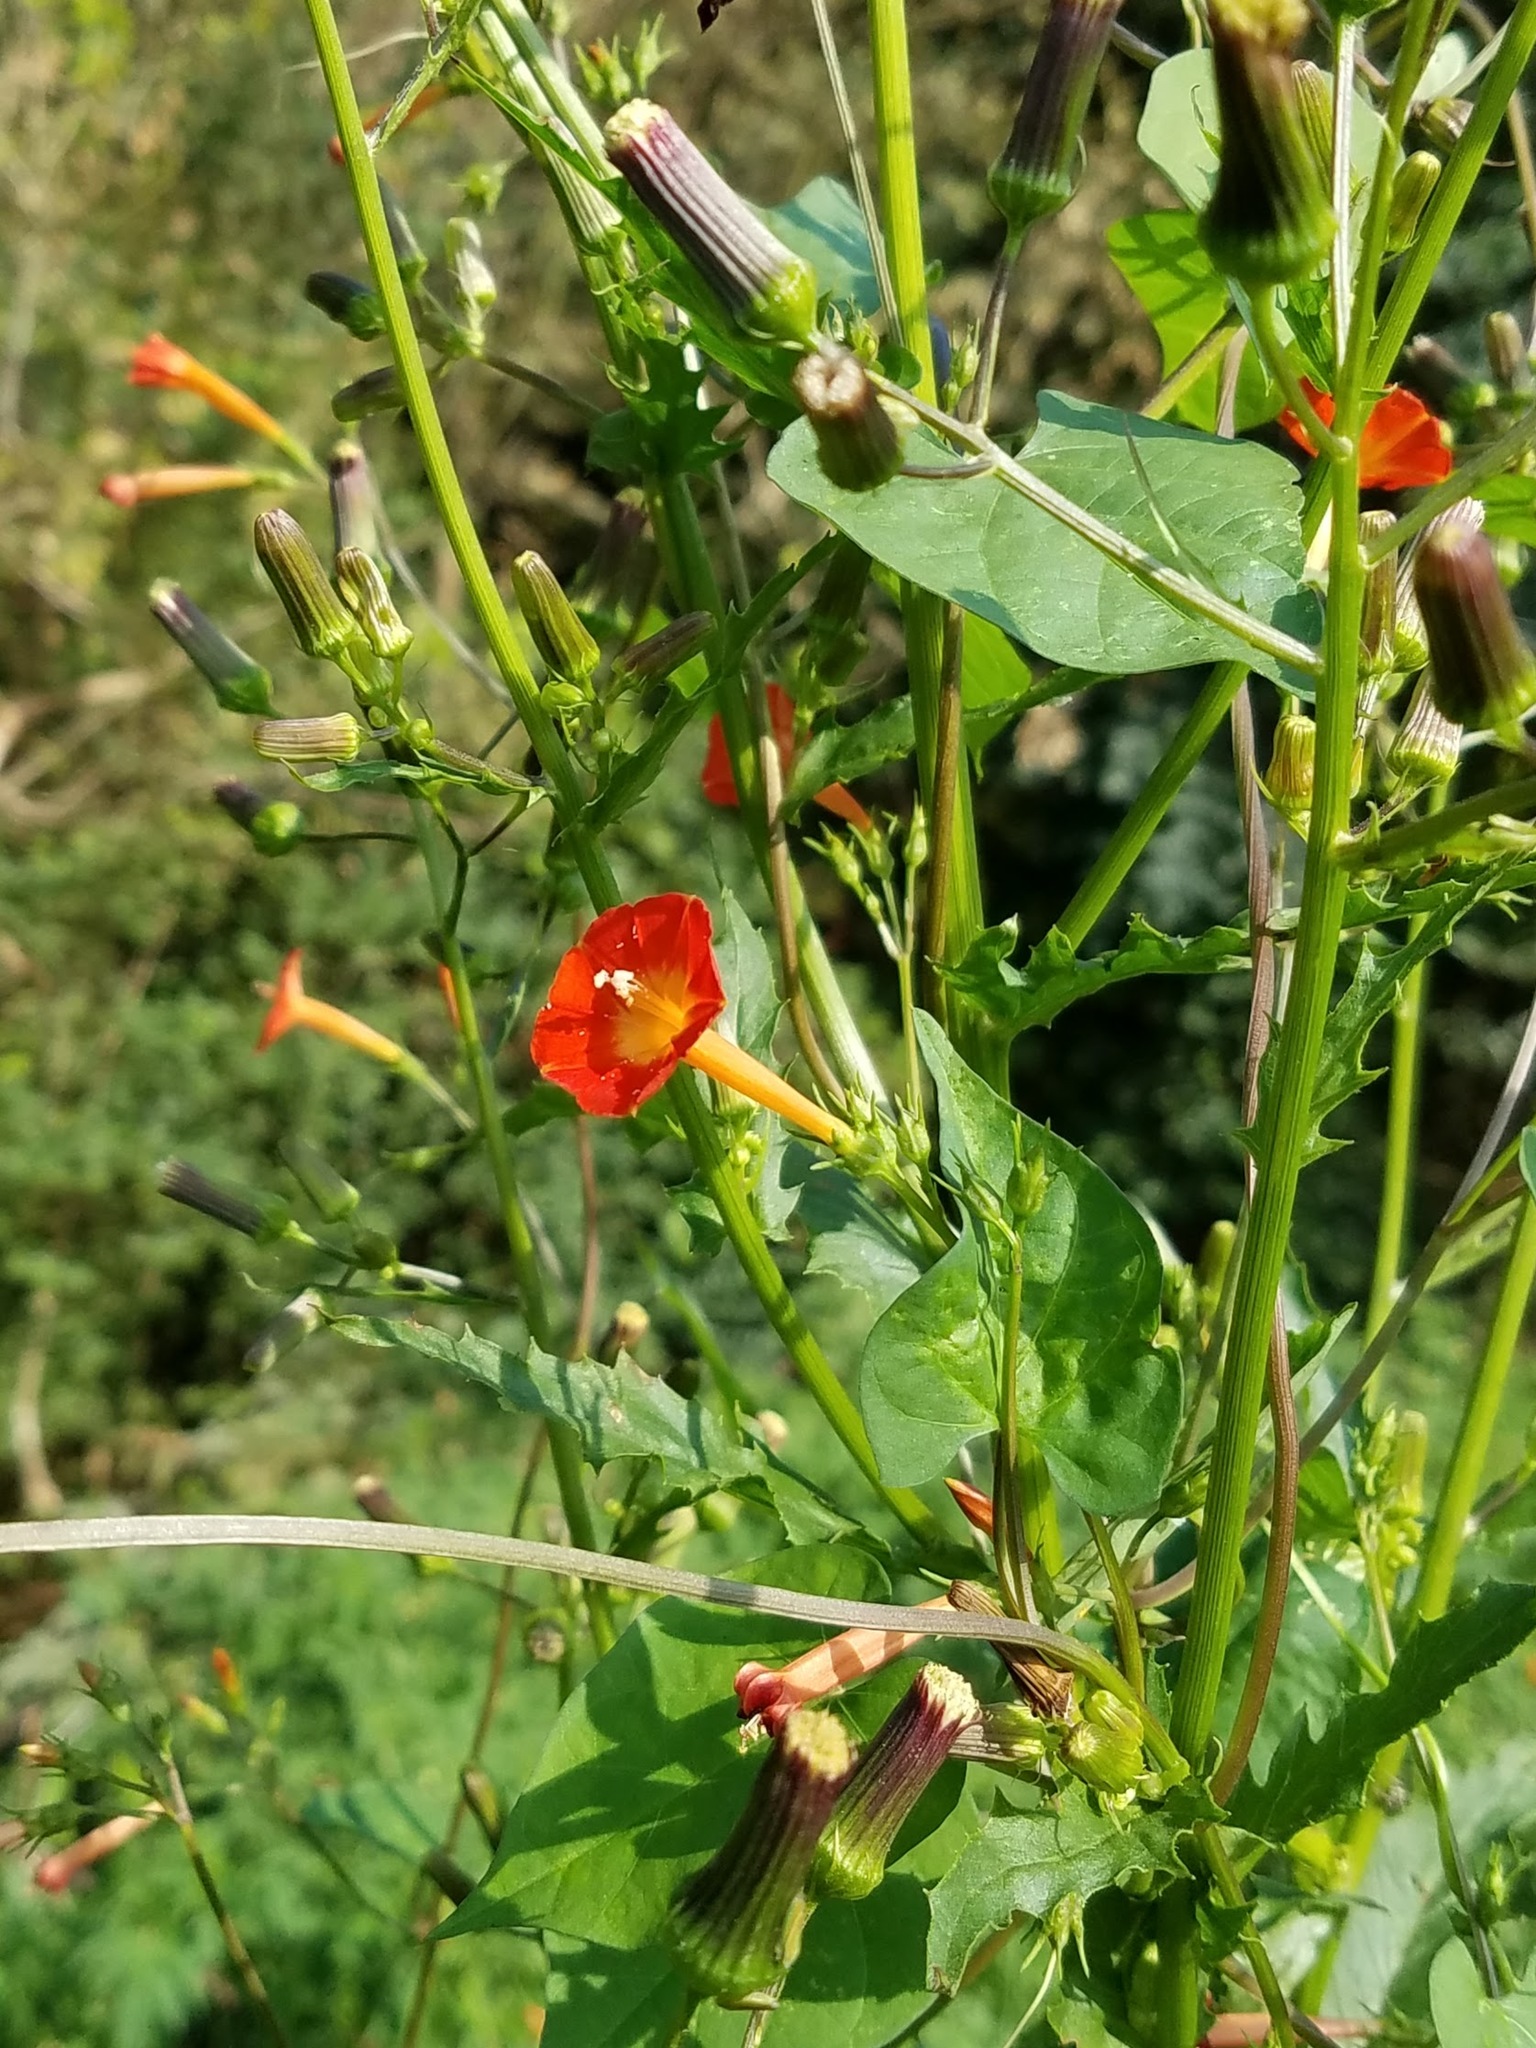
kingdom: Plantae
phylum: Tracheophyta
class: Magnoliopsida
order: Solanales
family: Convolvulaceae
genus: Ipomoea
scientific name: Ipomoea coccinea
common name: Red morning-glory
